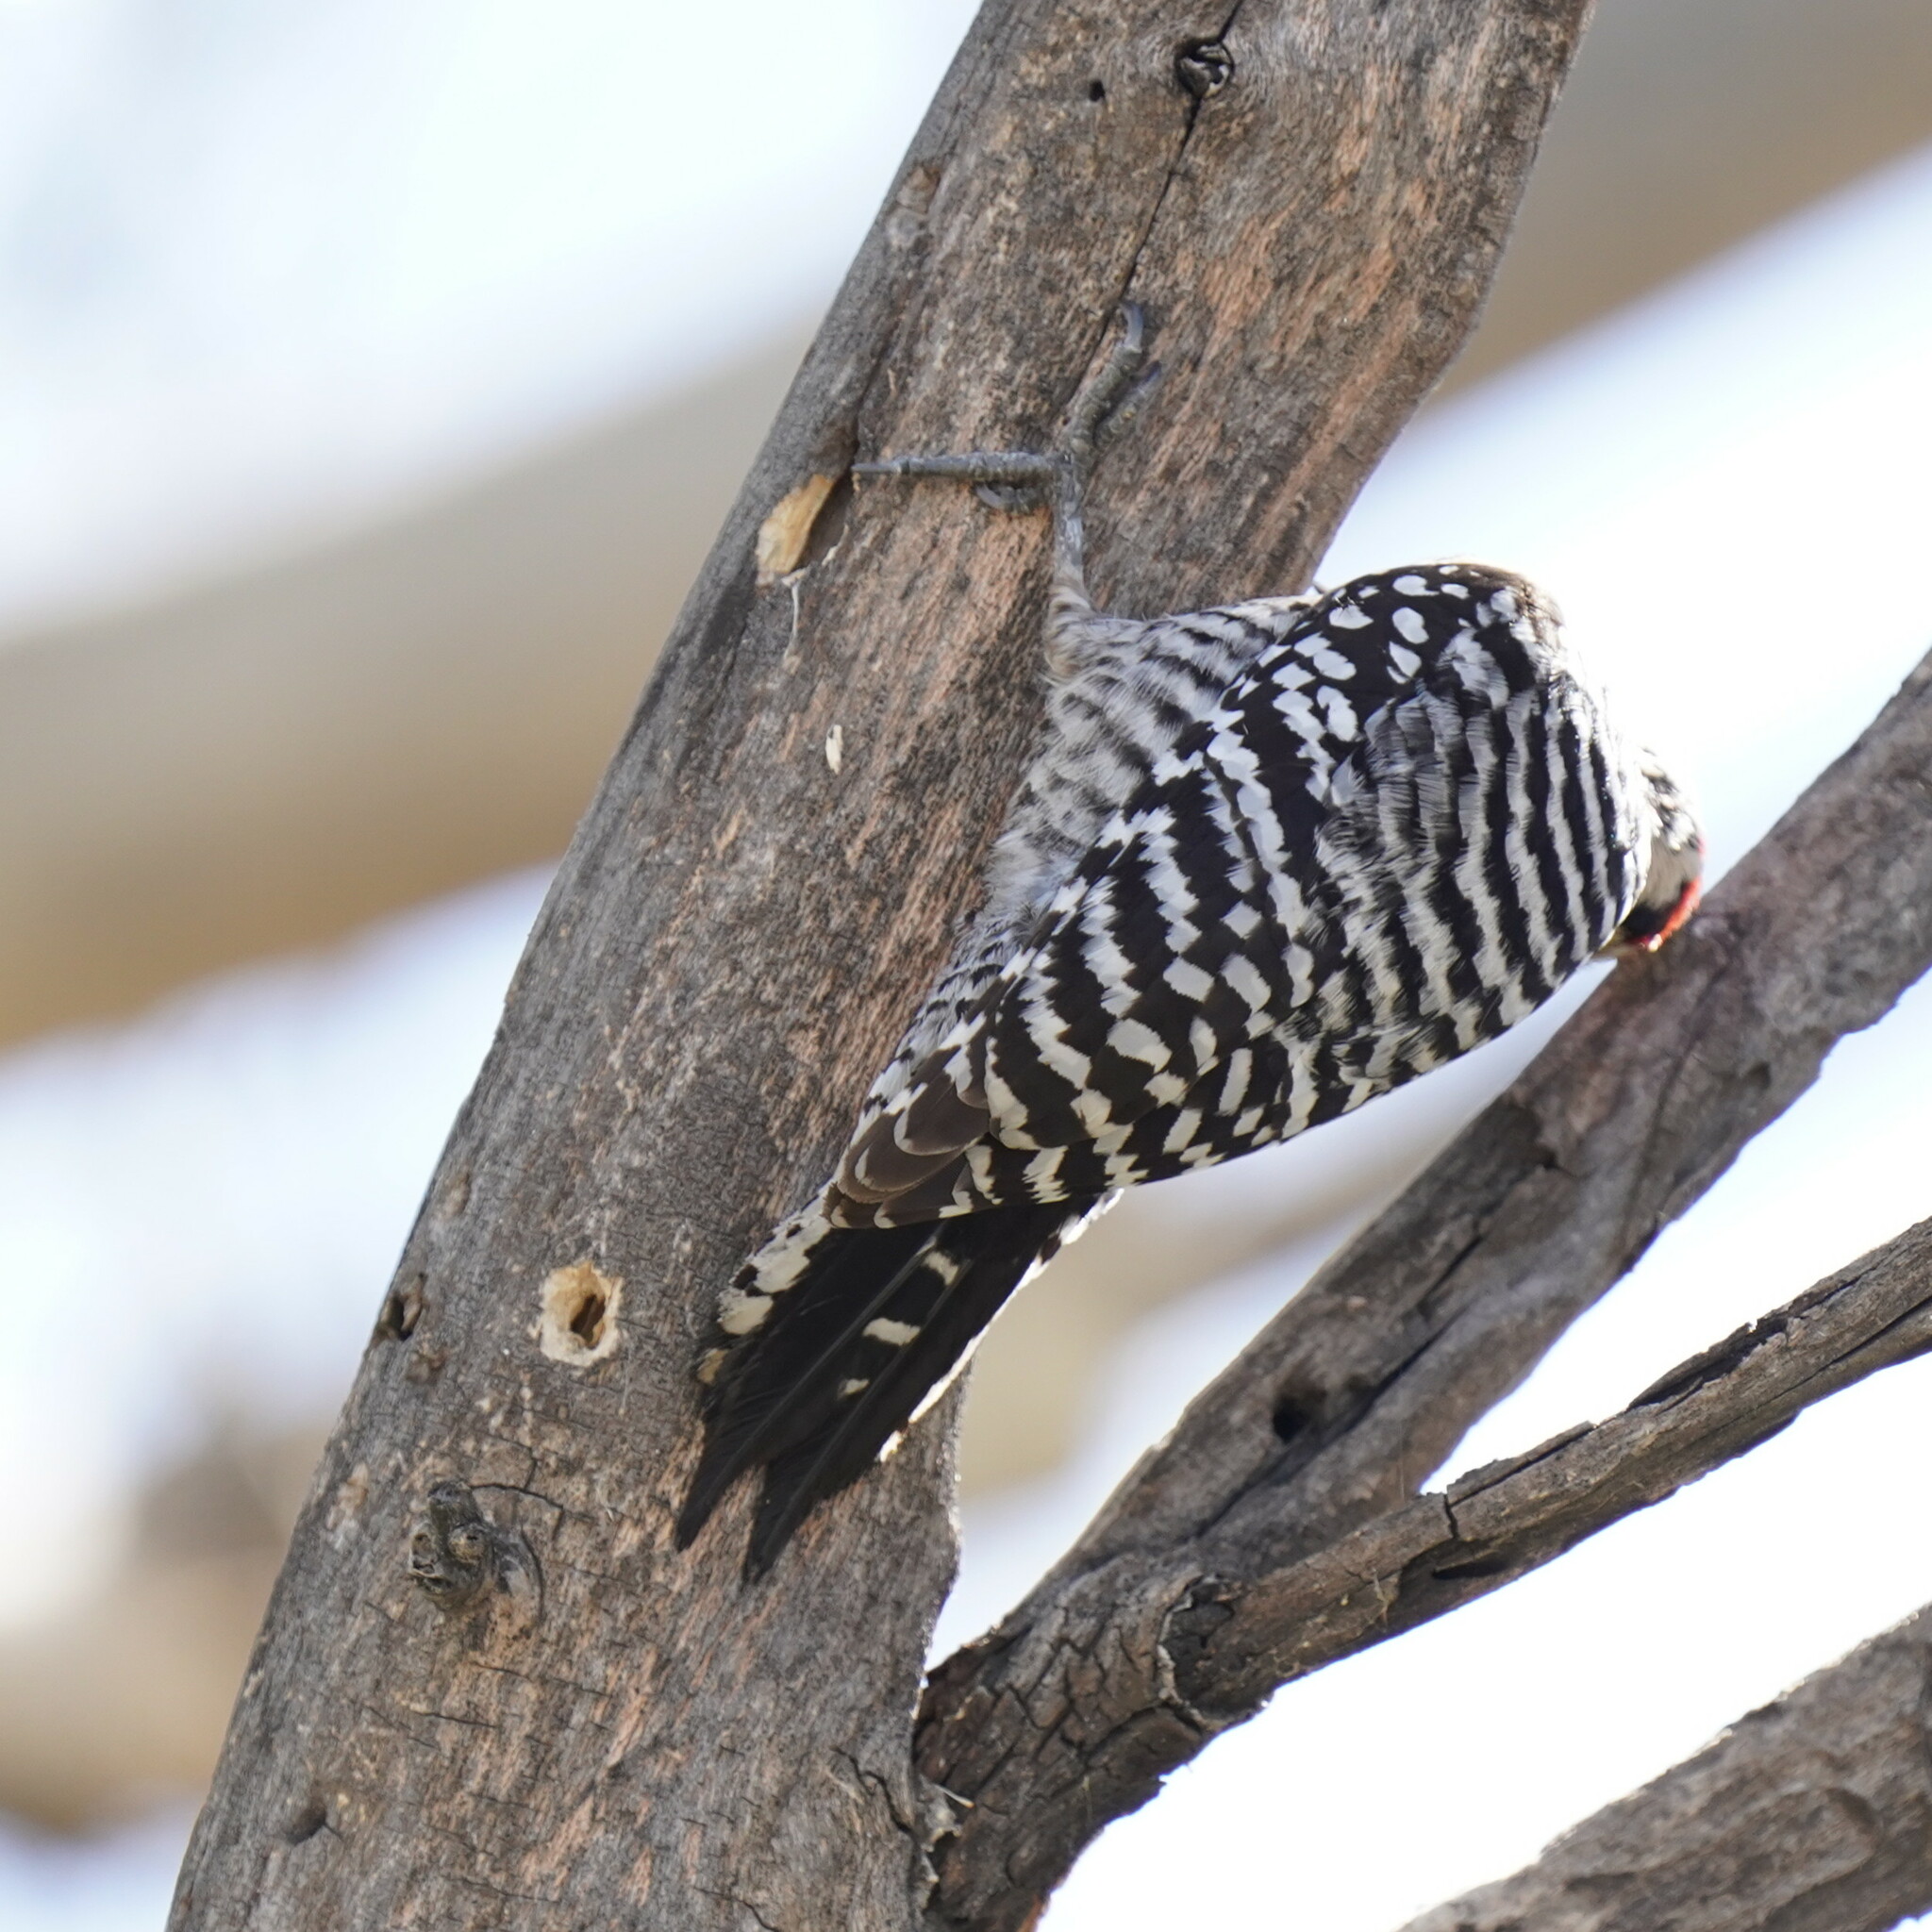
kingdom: Animalia
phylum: Chordata
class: Aves
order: Piciformes
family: Picidae
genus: Dryobates
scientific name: Dryobates scalaris
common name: Ladder-backed woodpecker
